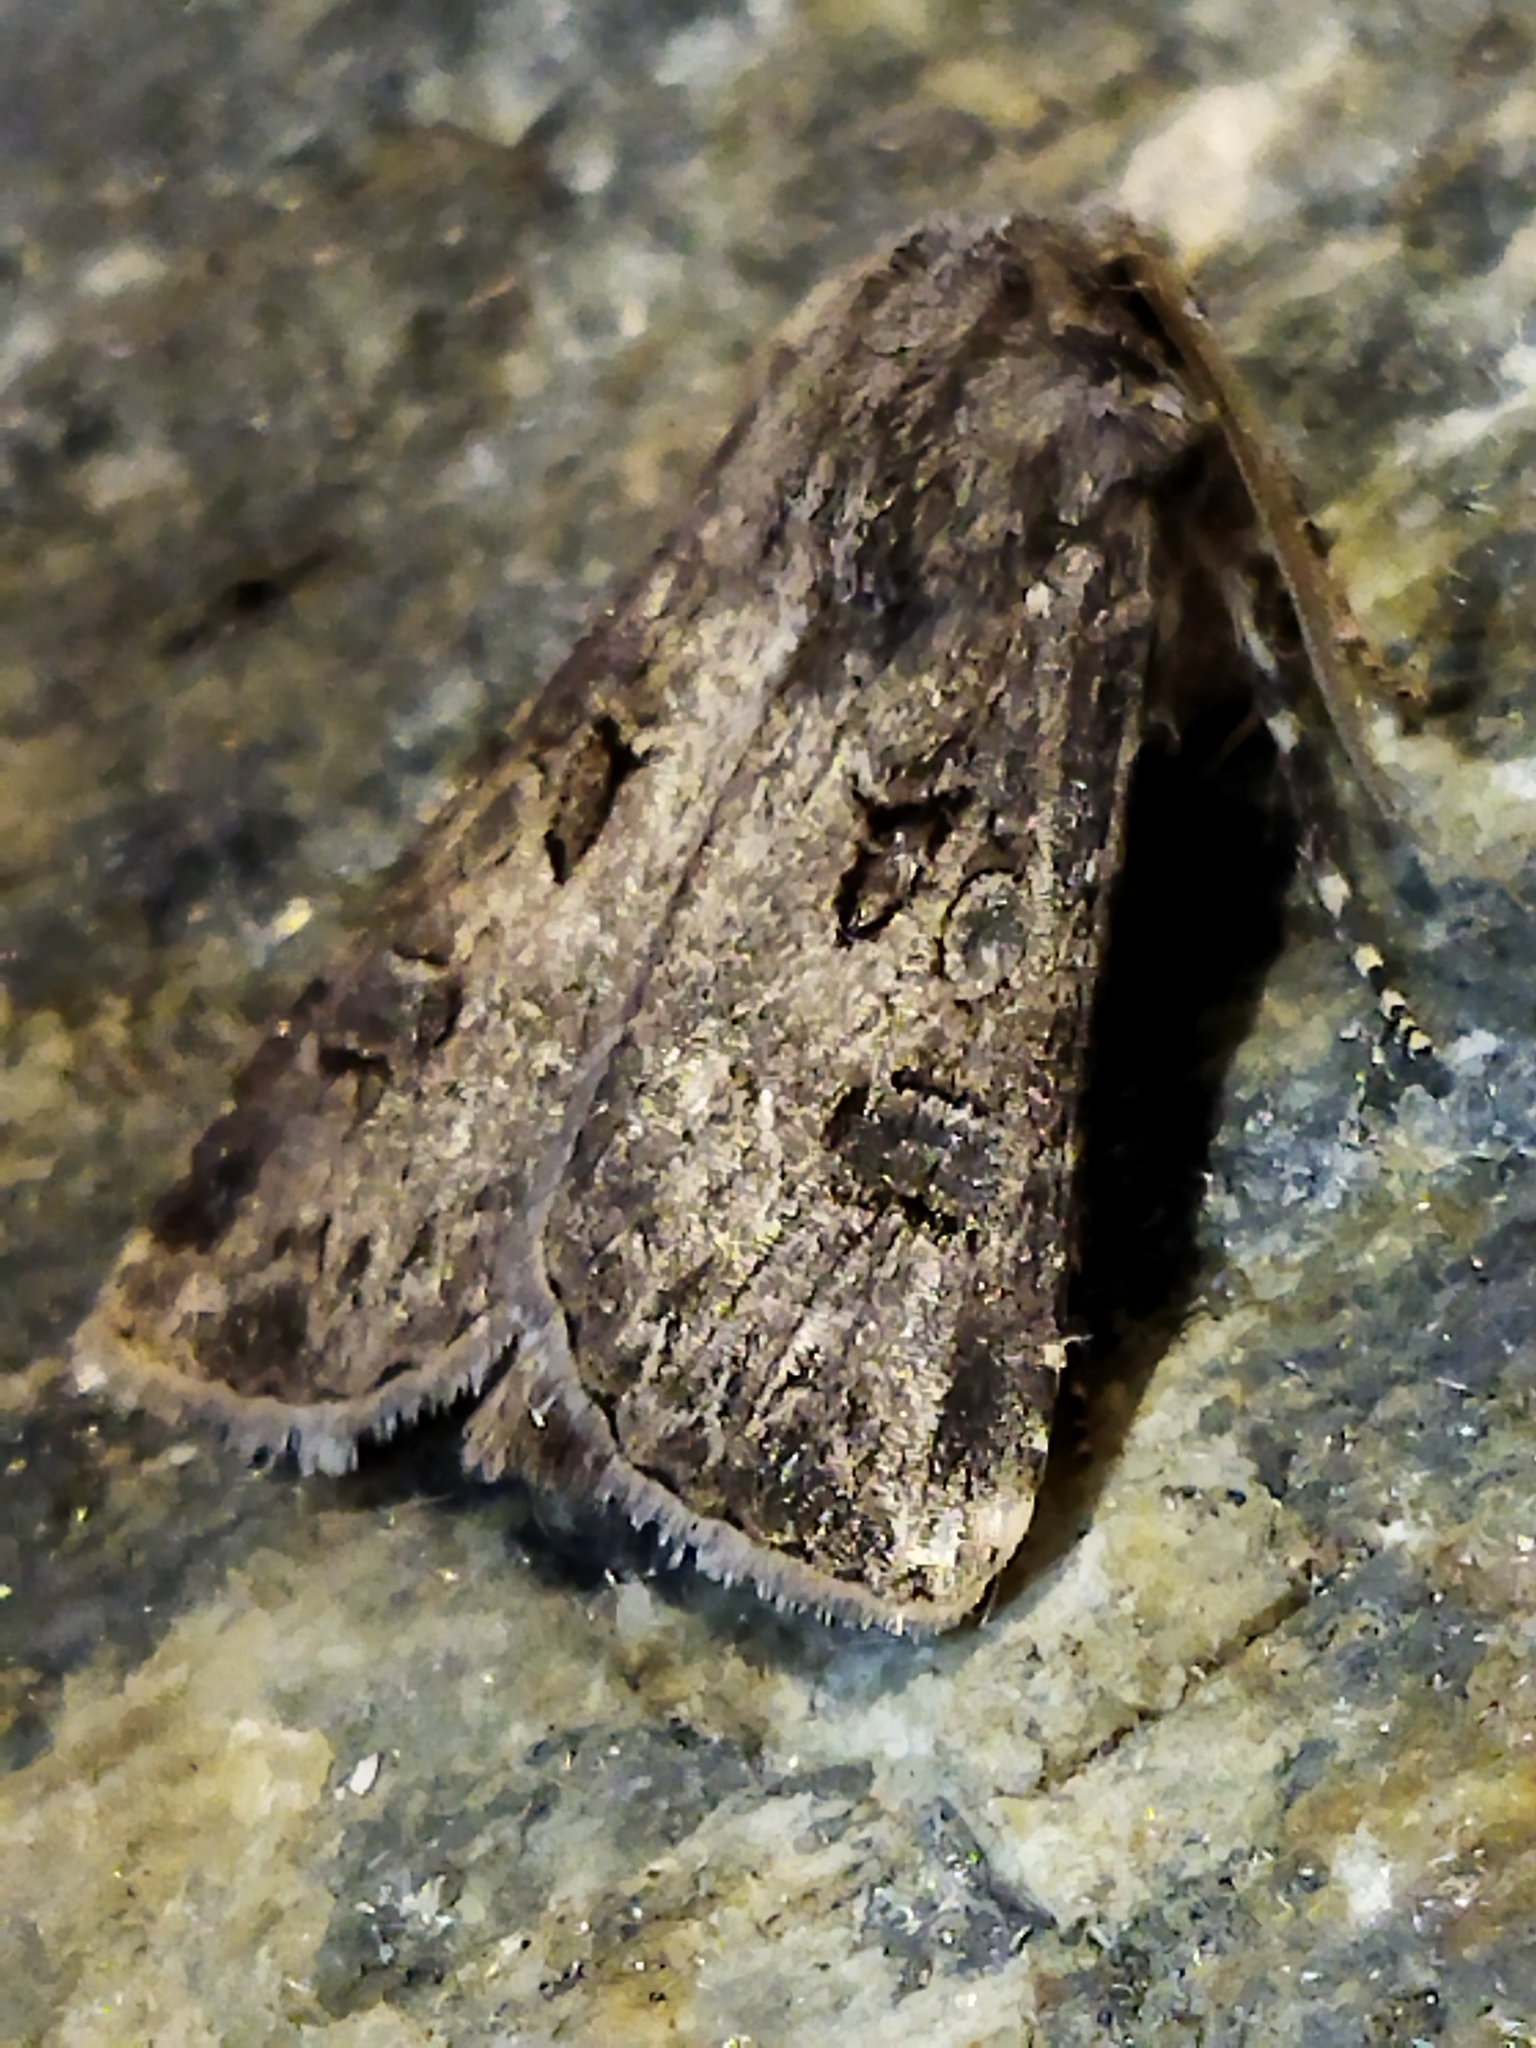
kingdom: Animalia
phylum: Arthropoda
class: Insecta
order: Lepidoptera
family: Noctuidae
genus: Agrotis
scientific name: Agrotis bigramma
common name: Great dart
